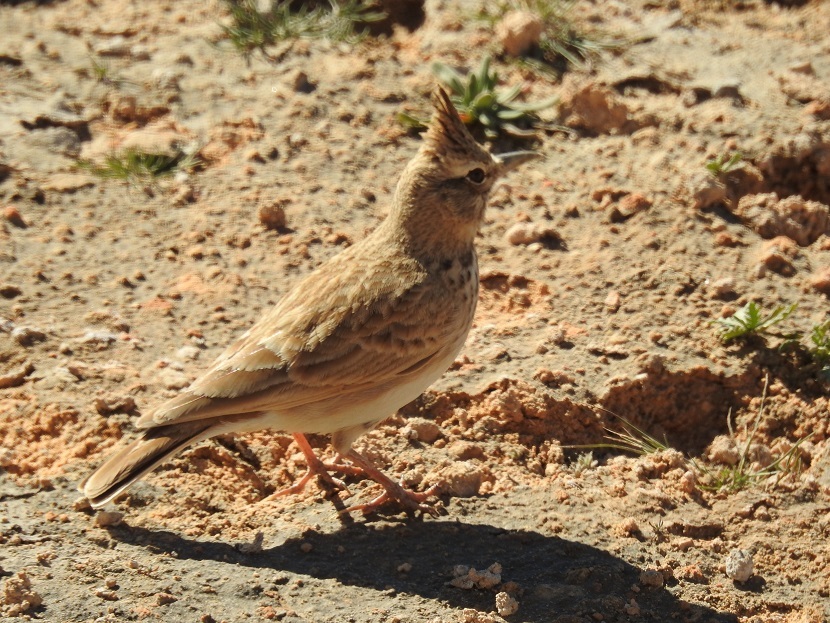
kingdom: Animalia
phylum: Chordata
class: Aves
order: Passeriformes
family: Alaudidae
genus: Galerida
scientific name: Galerida cristata
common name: Crested lark
